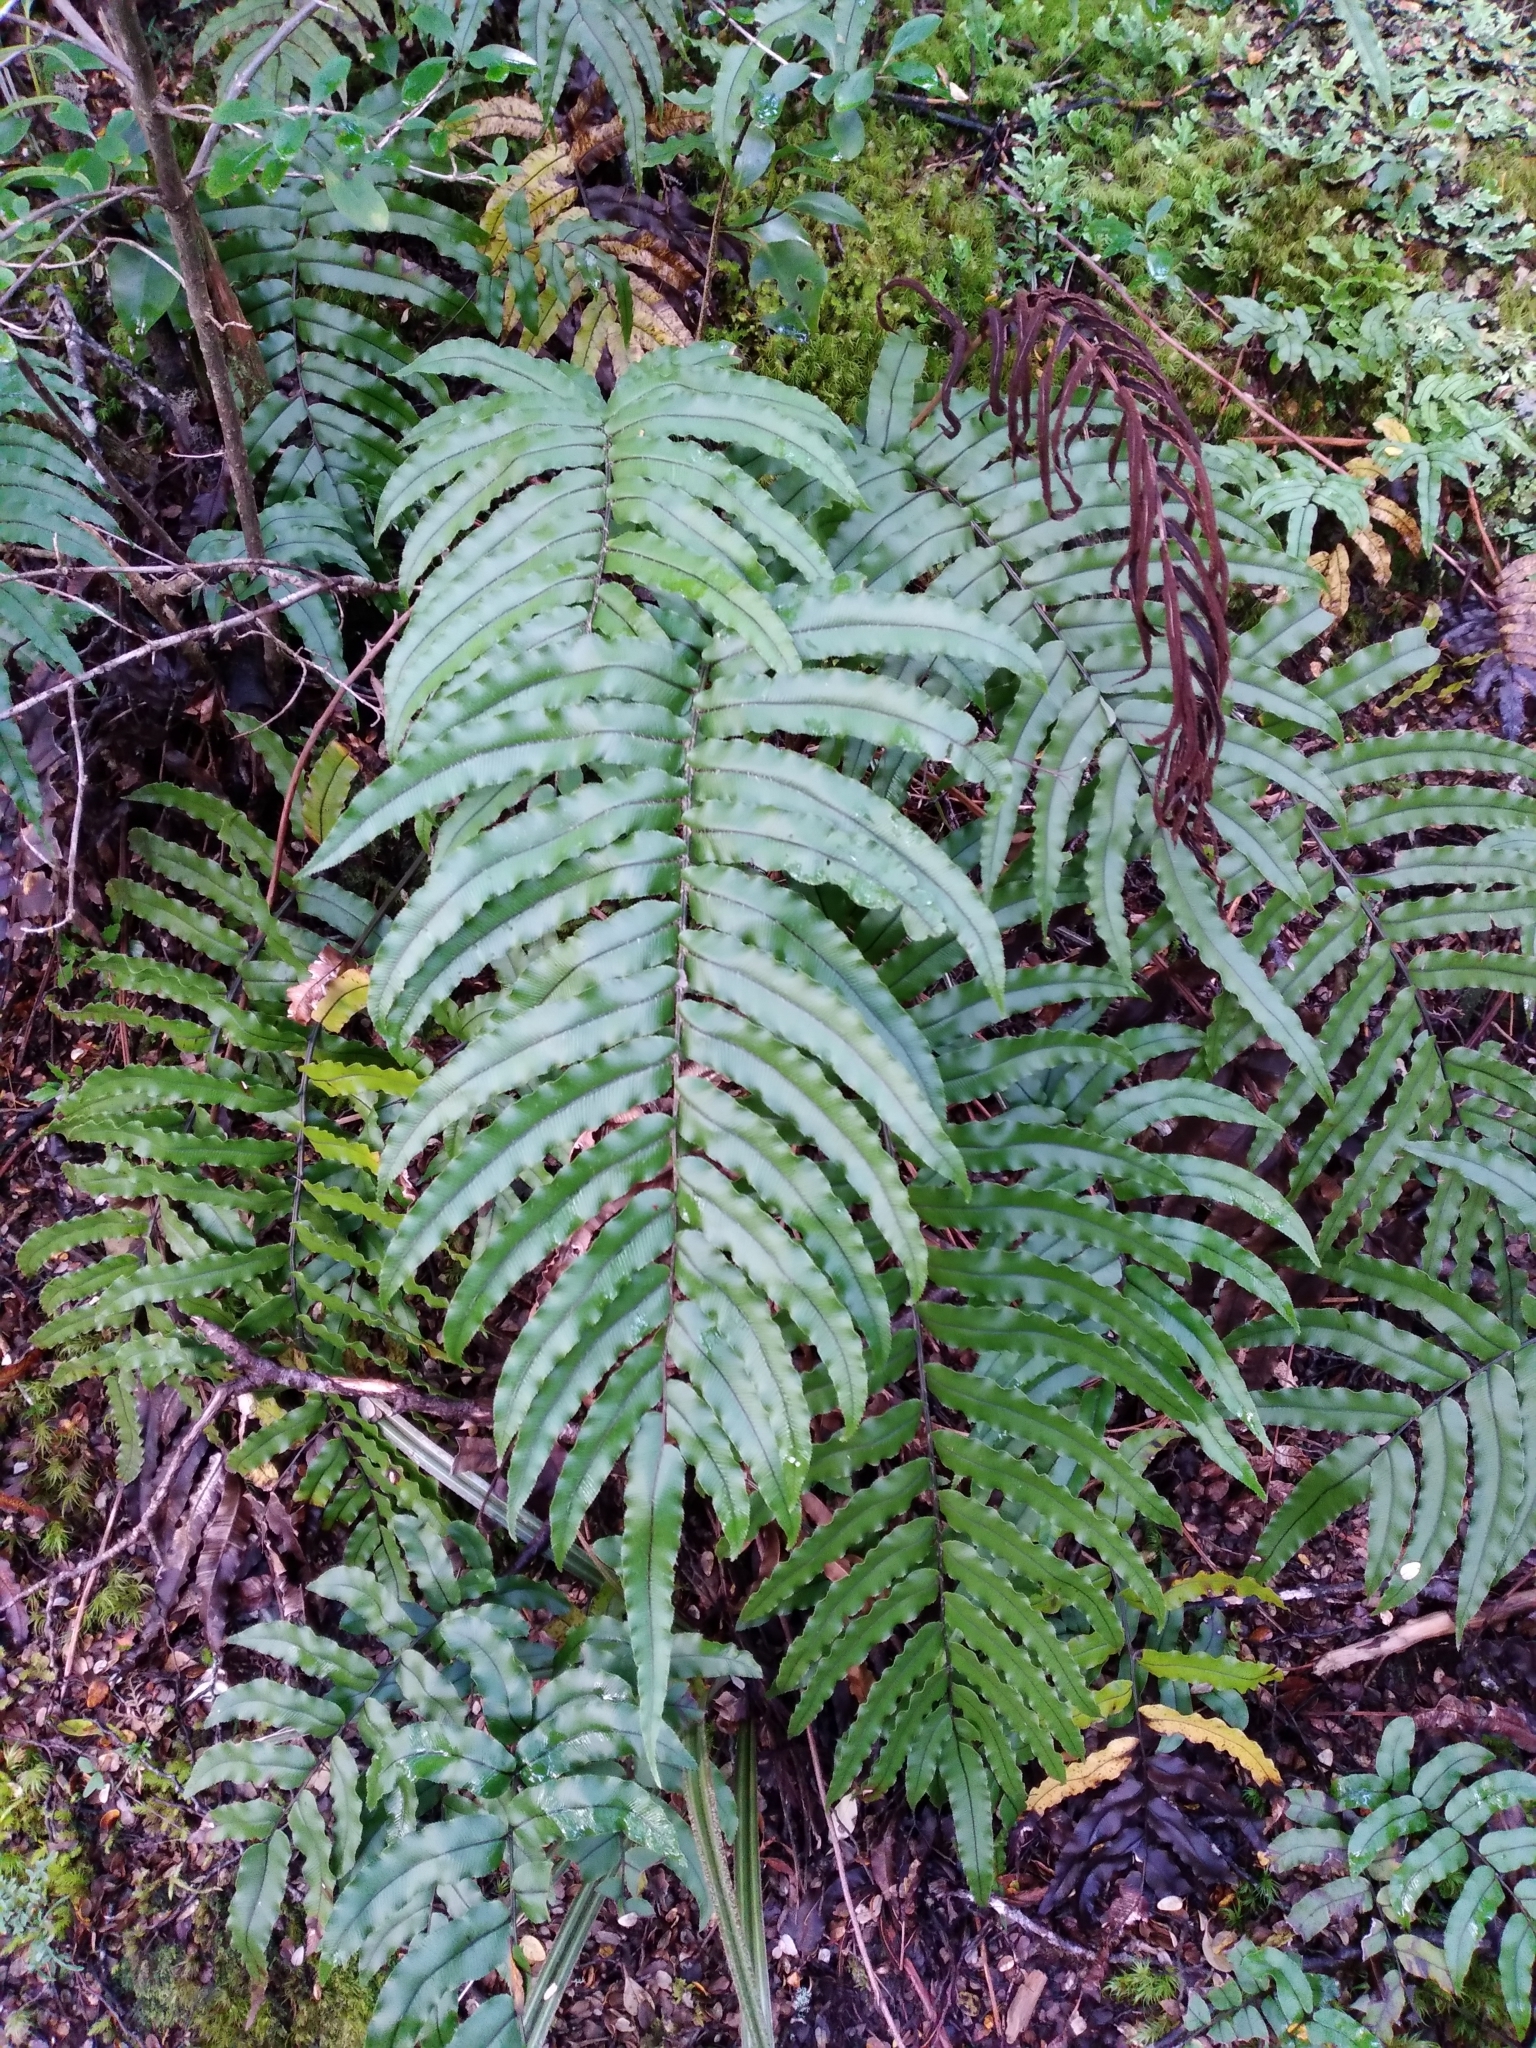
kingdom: Plantae
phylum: Tracheophyta
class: Polypodiopsida
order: Polypodiales
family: Blechnaceae
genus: Parablechnum
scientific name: Parablechnum montanum
